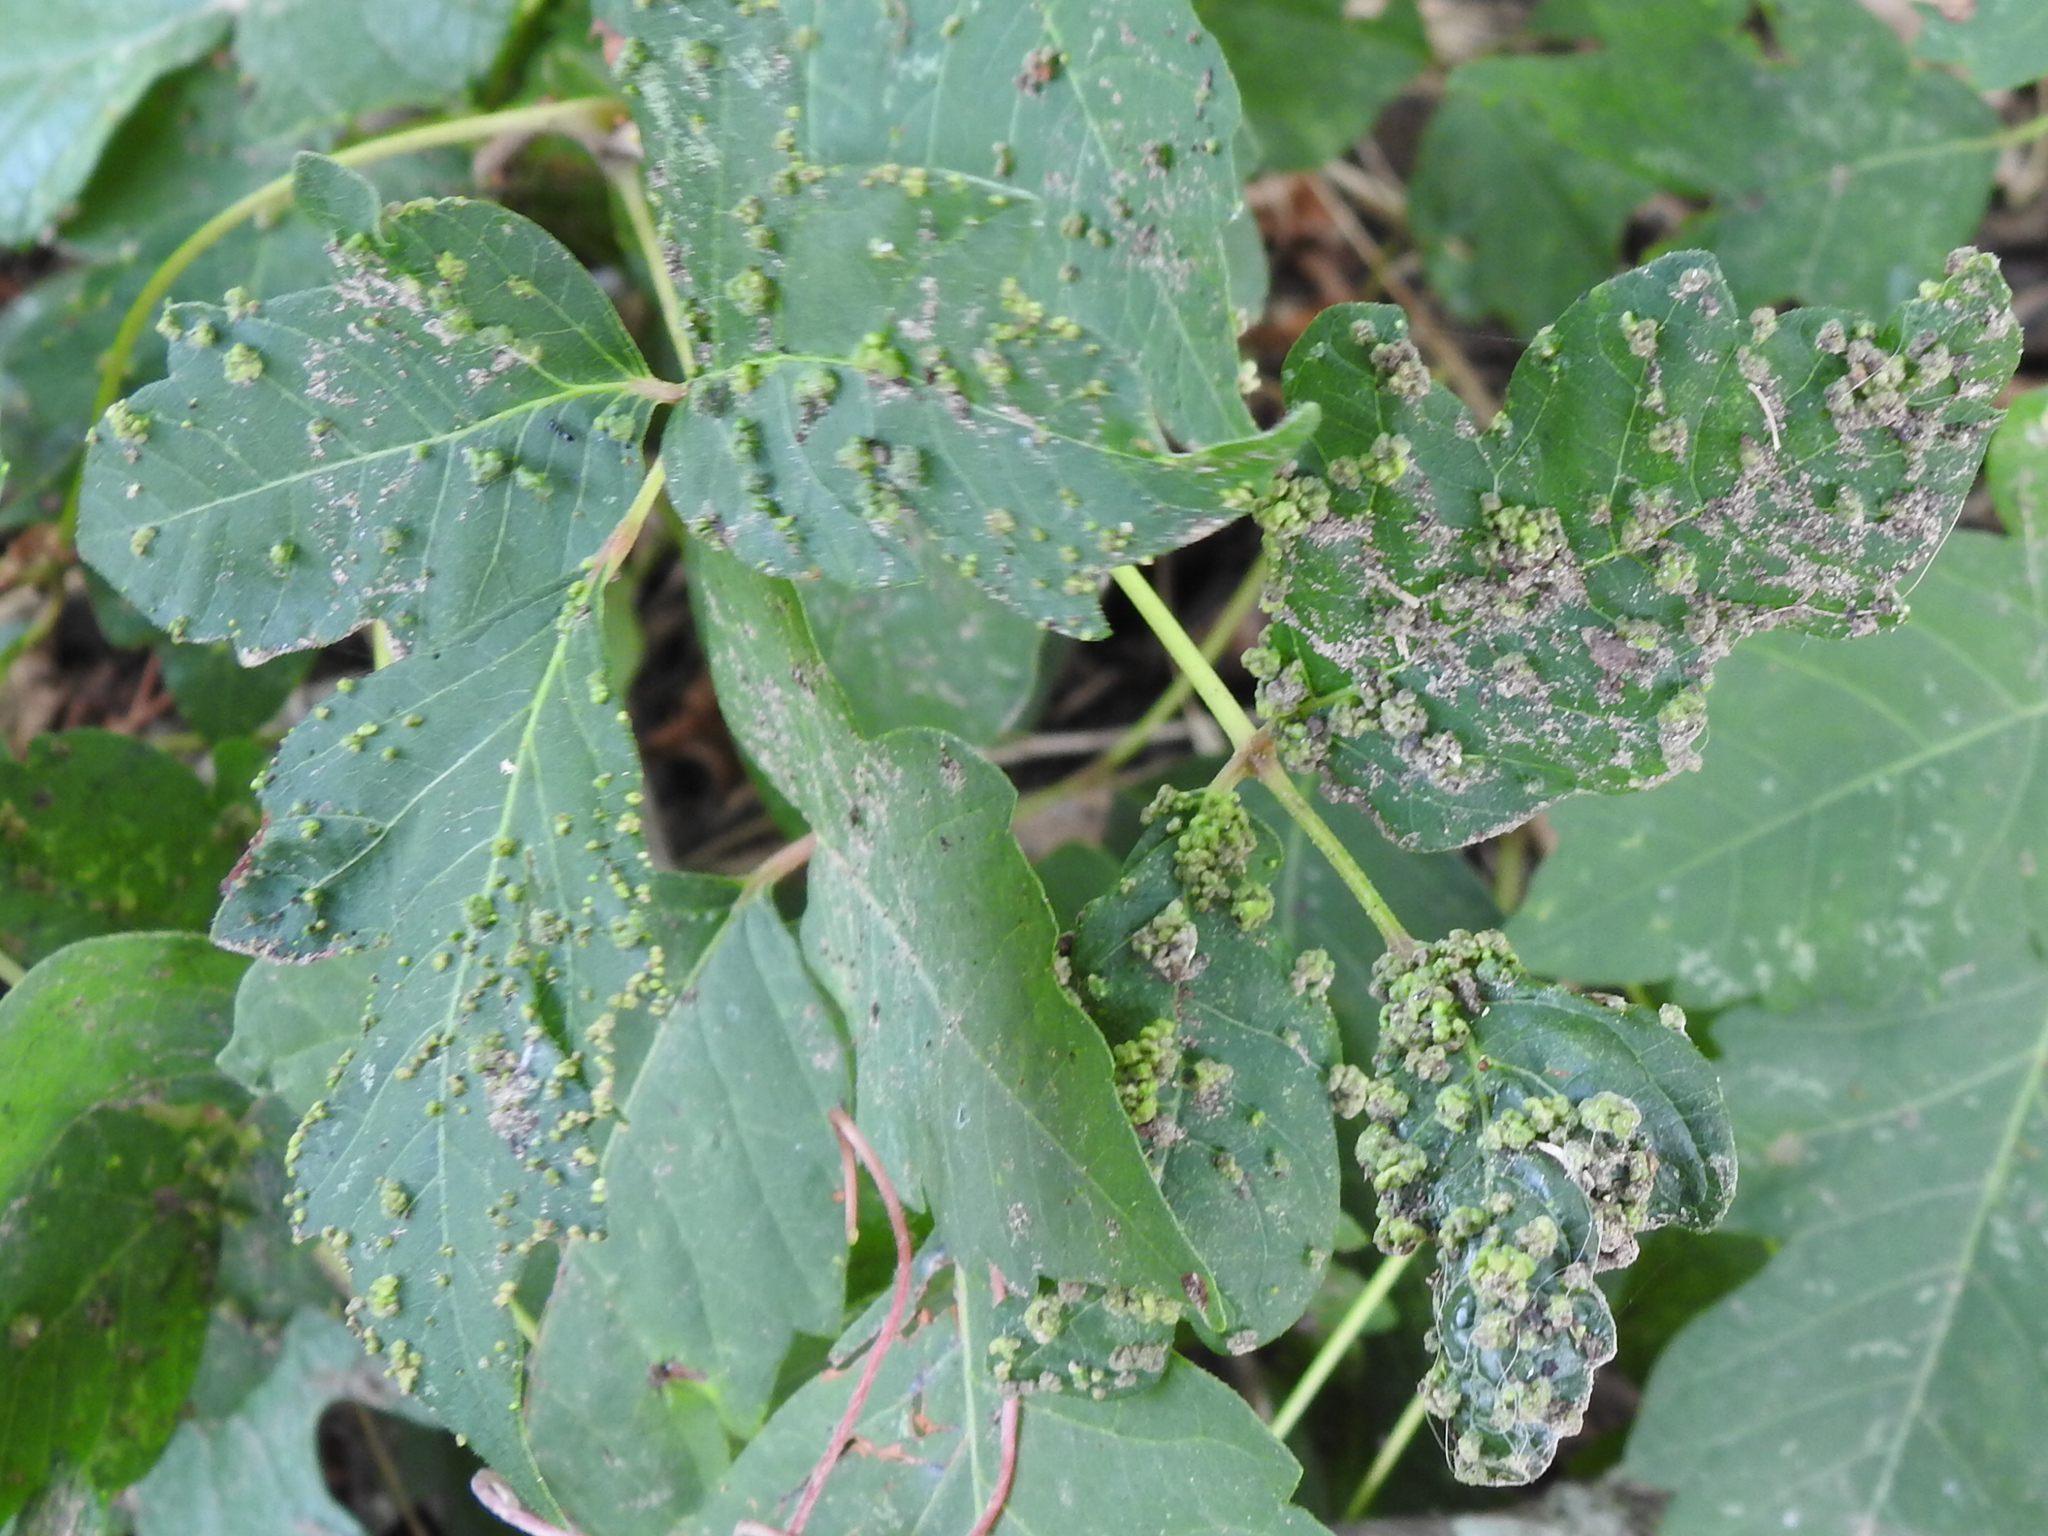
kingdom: Animalia
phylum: Arthropoda
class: Arachnida
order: Trombidiformes
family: Eriophyidae
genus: Aculops
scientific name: Aculops
